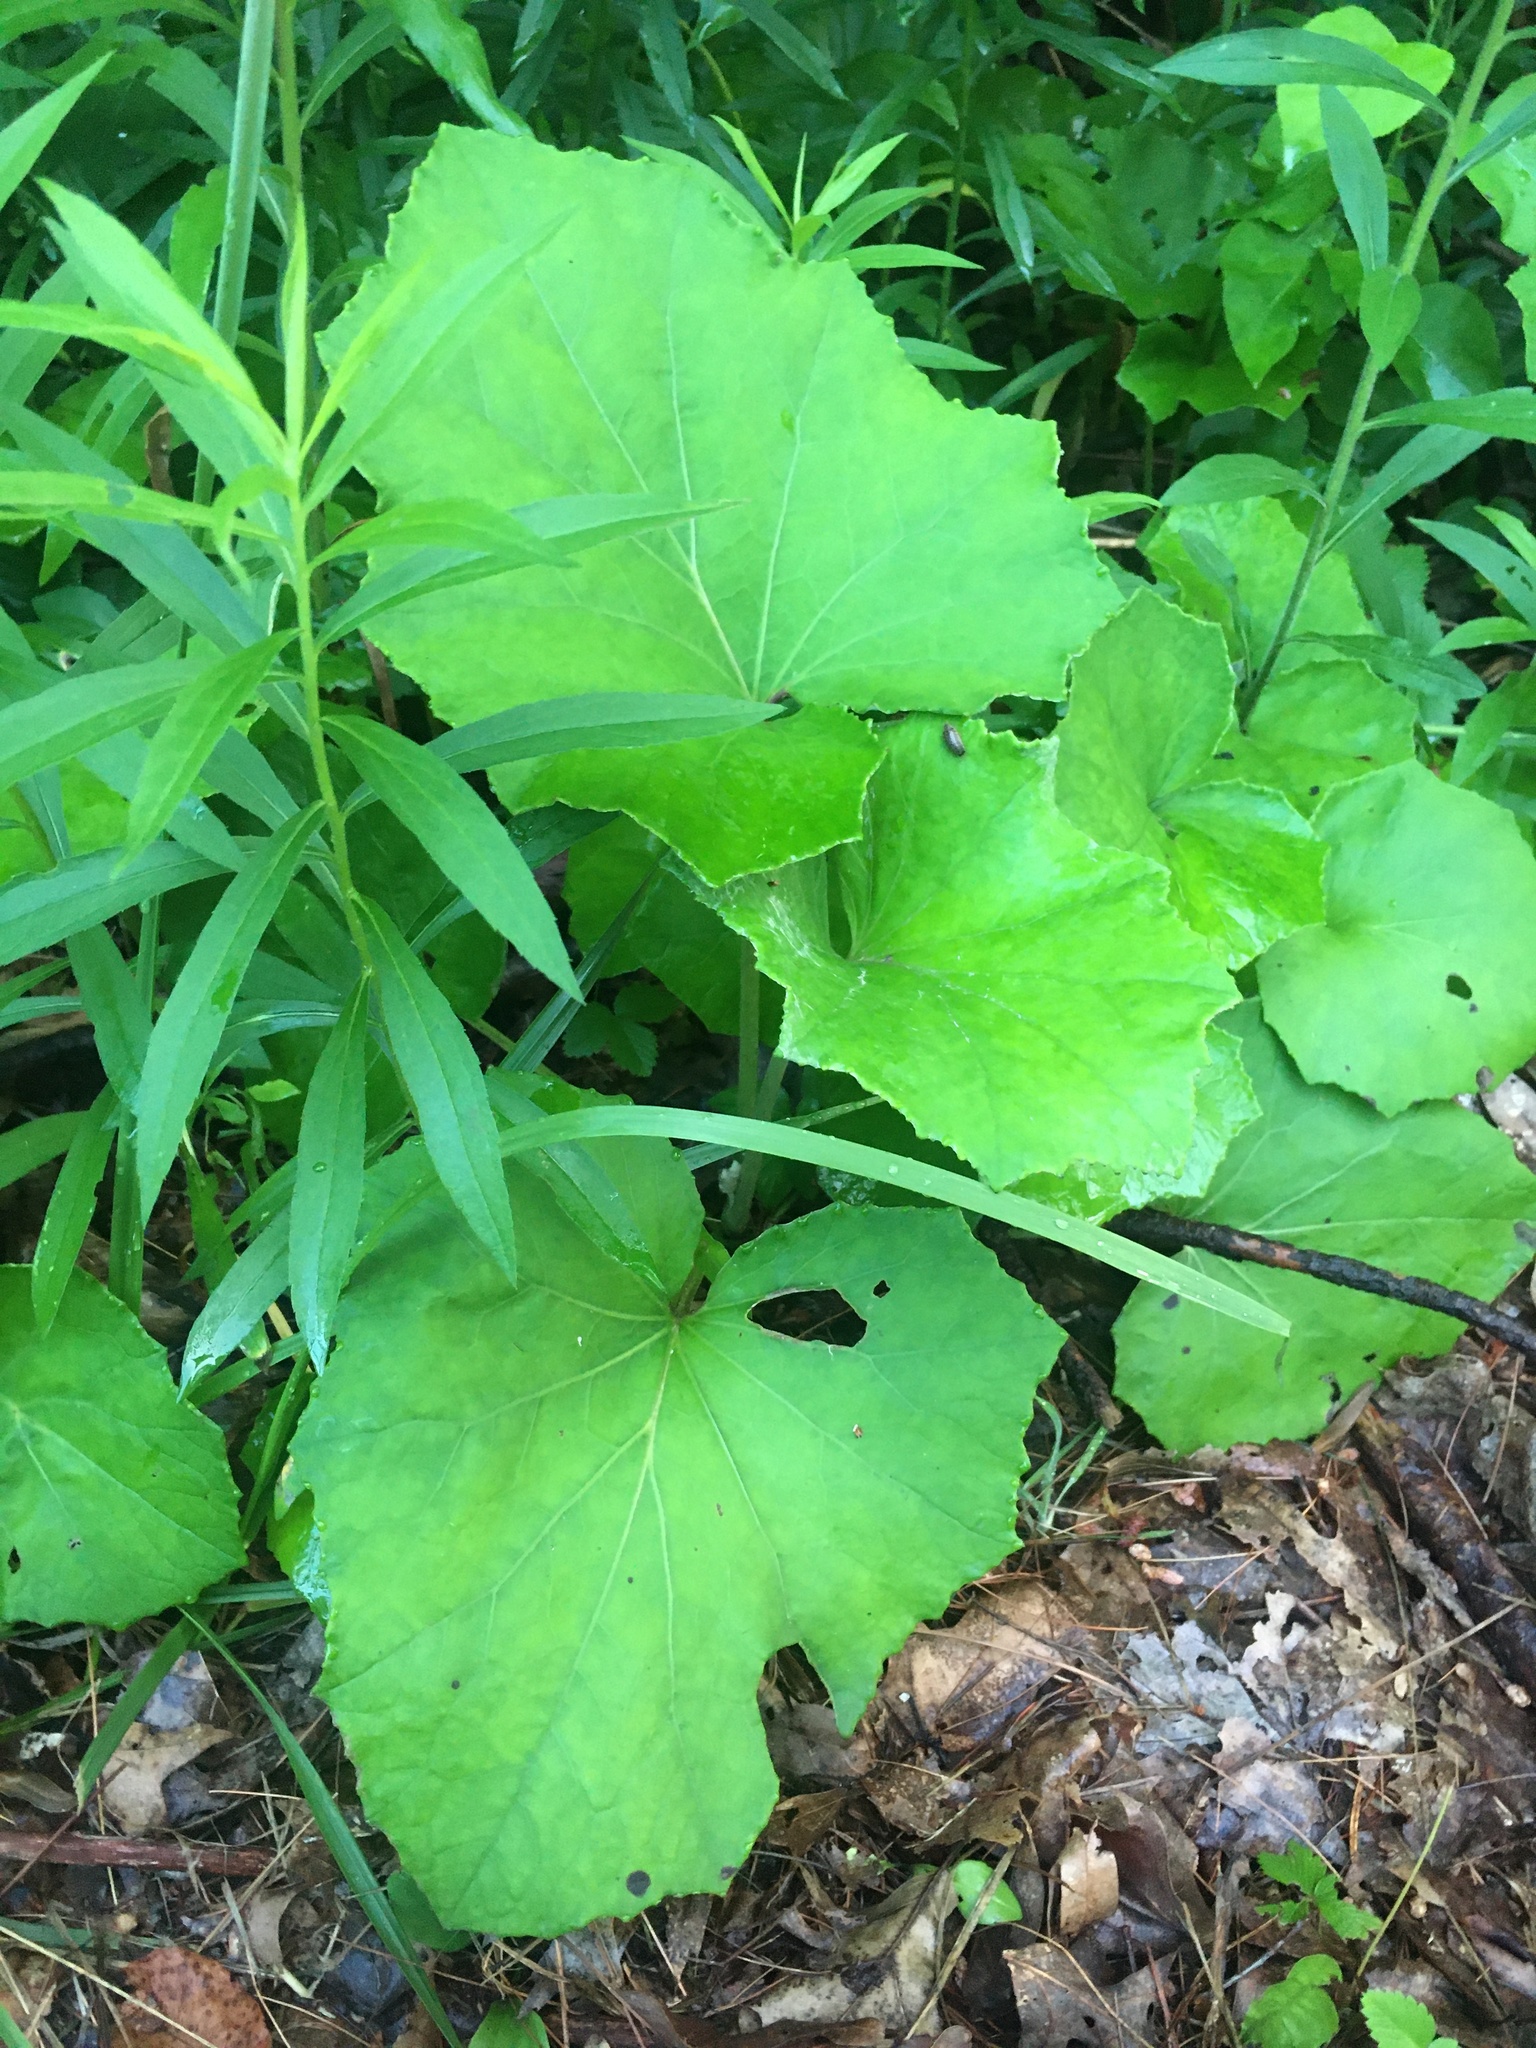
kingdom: Plantae
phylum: Tracheophyta
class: Magnoliopsida
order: Asterales
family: Asteraceae
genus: Tussilago
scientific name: Tussilago farfara
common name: Coltsfoot
